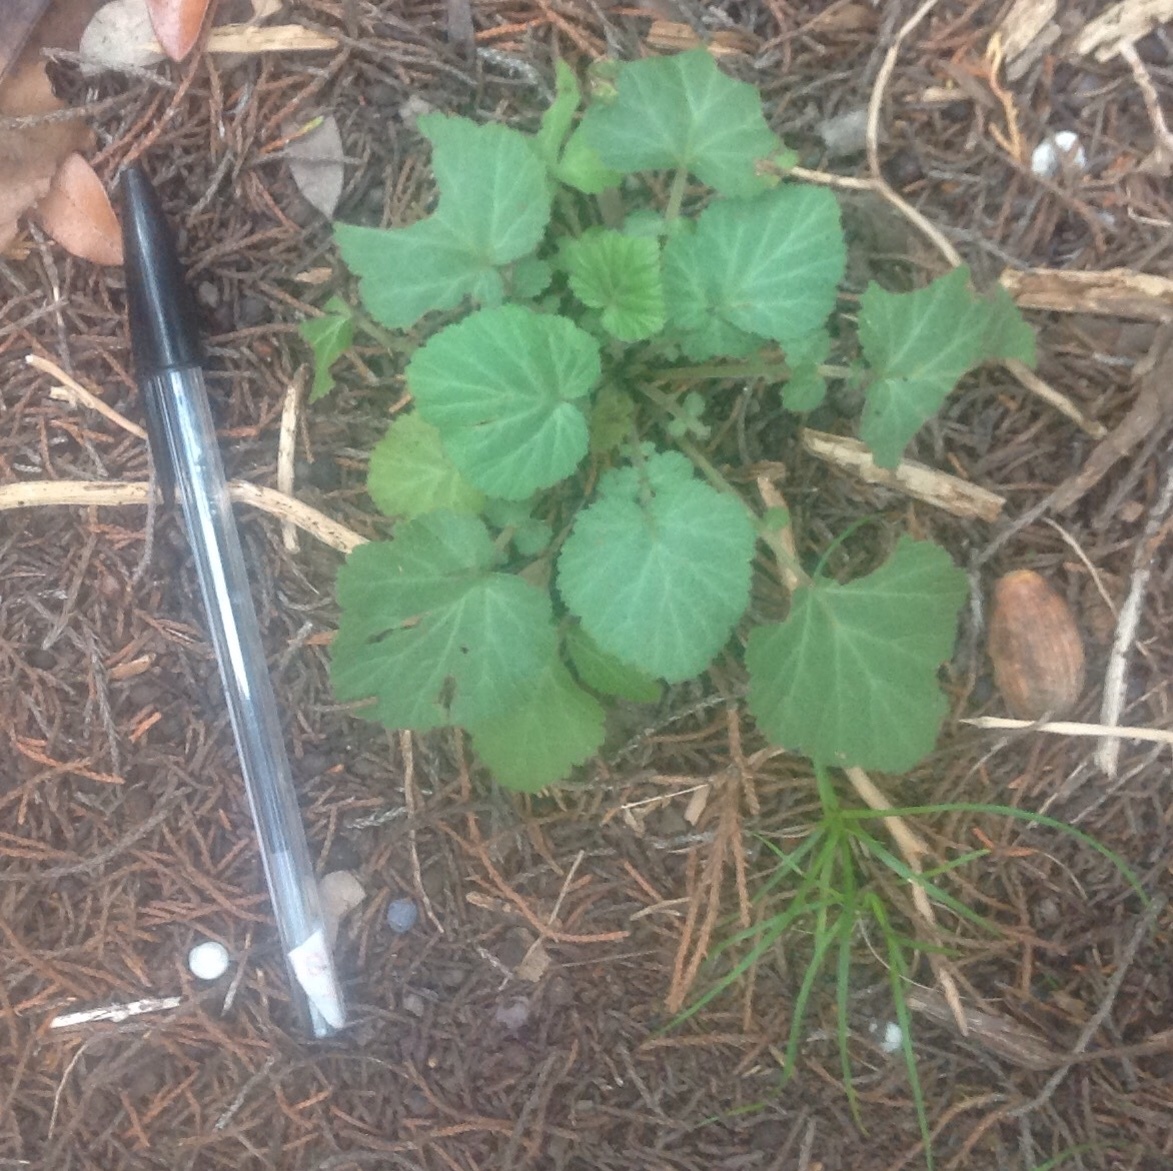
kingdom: Plantae
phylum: Tracheophyta
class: Magnoliopsida
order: Rosales
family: Rosaceae
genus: Geum
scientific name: Geum canadense
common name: White avens
